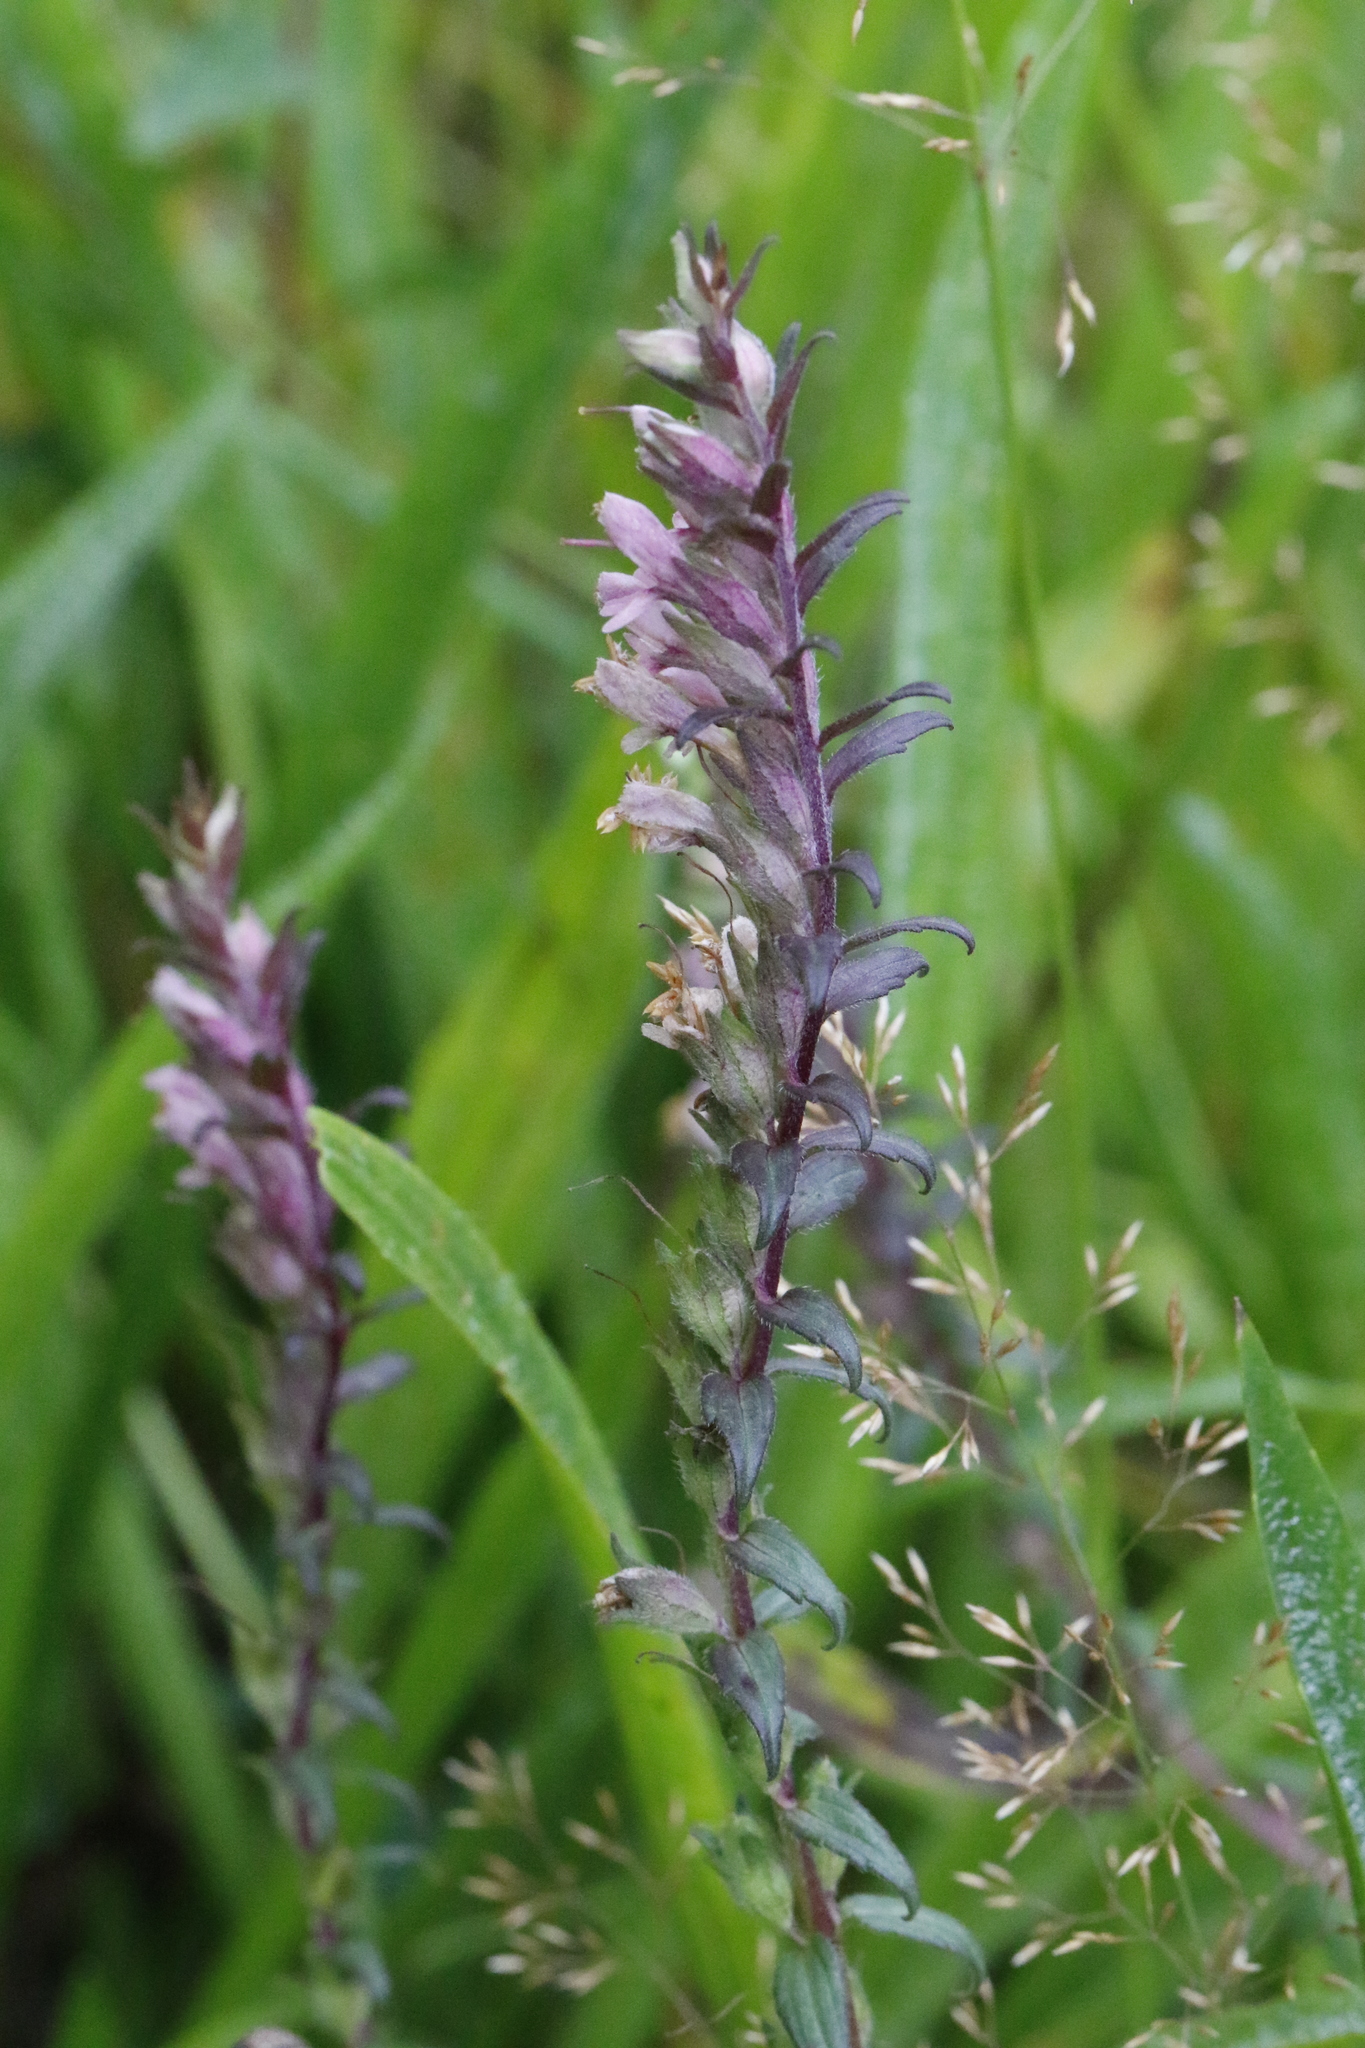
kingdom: Plantae
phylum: Tracheophyta
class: Magnoliopsida
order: Lamiales
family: Orobanchaceae
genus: Odontites
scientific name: Odontites vulgaris
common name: Broomrape
